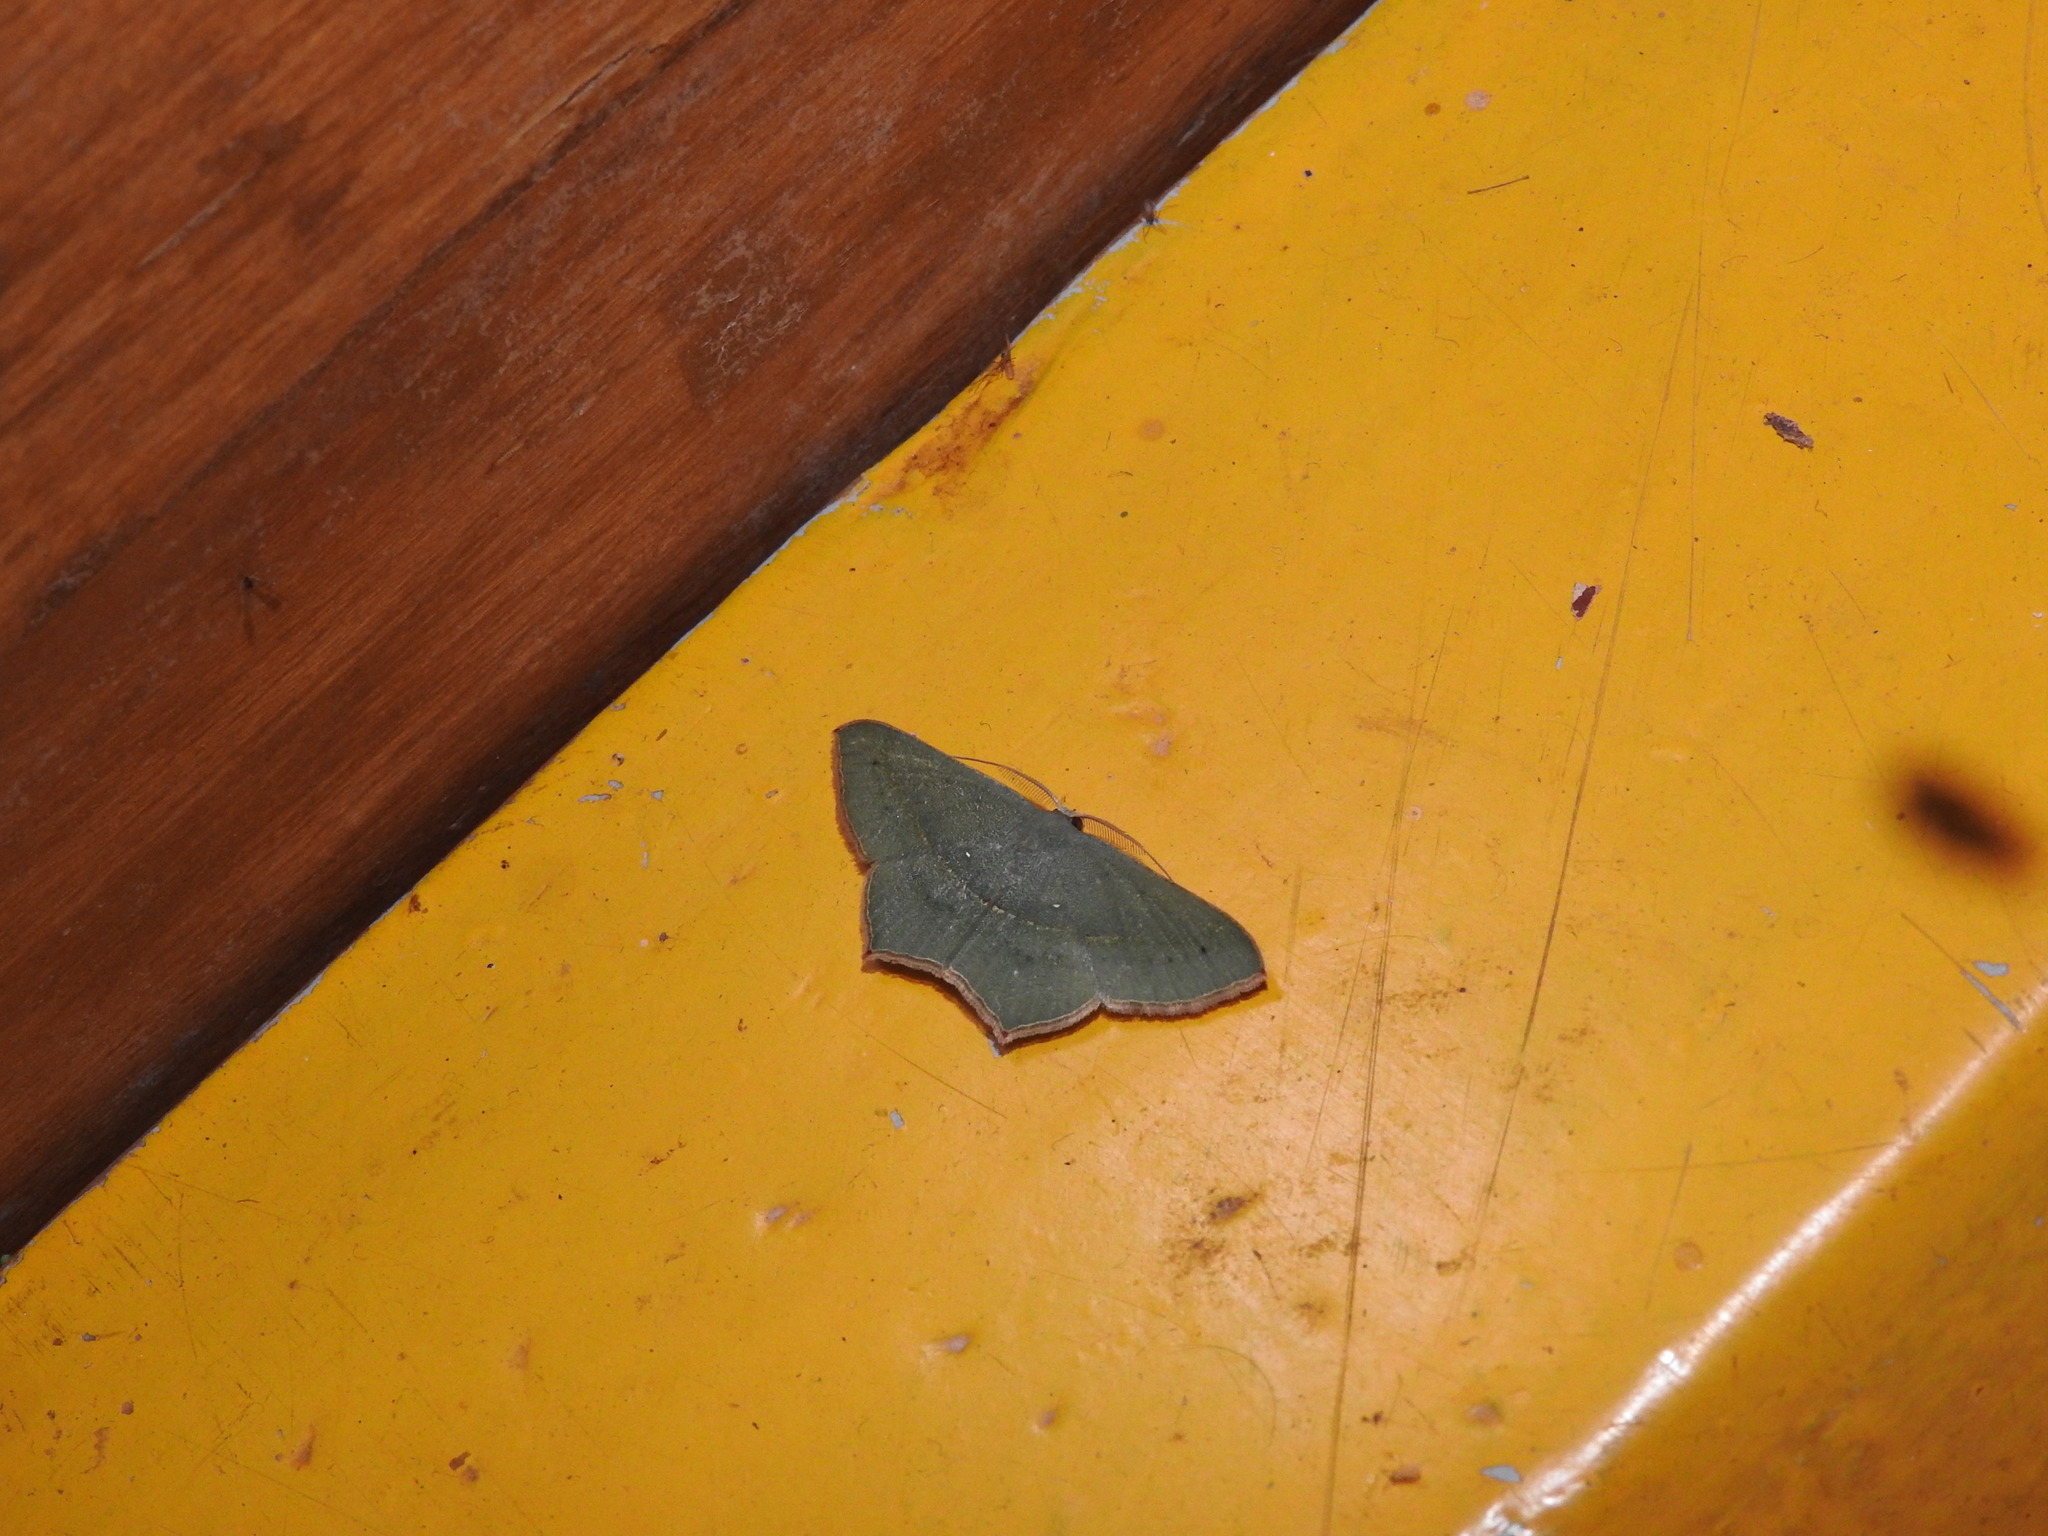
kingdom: Animalia
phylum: Arthropoda
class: Insecta
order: Lepidoptera
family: Geometridae
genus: Traminda
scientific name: Traminda mundissima
